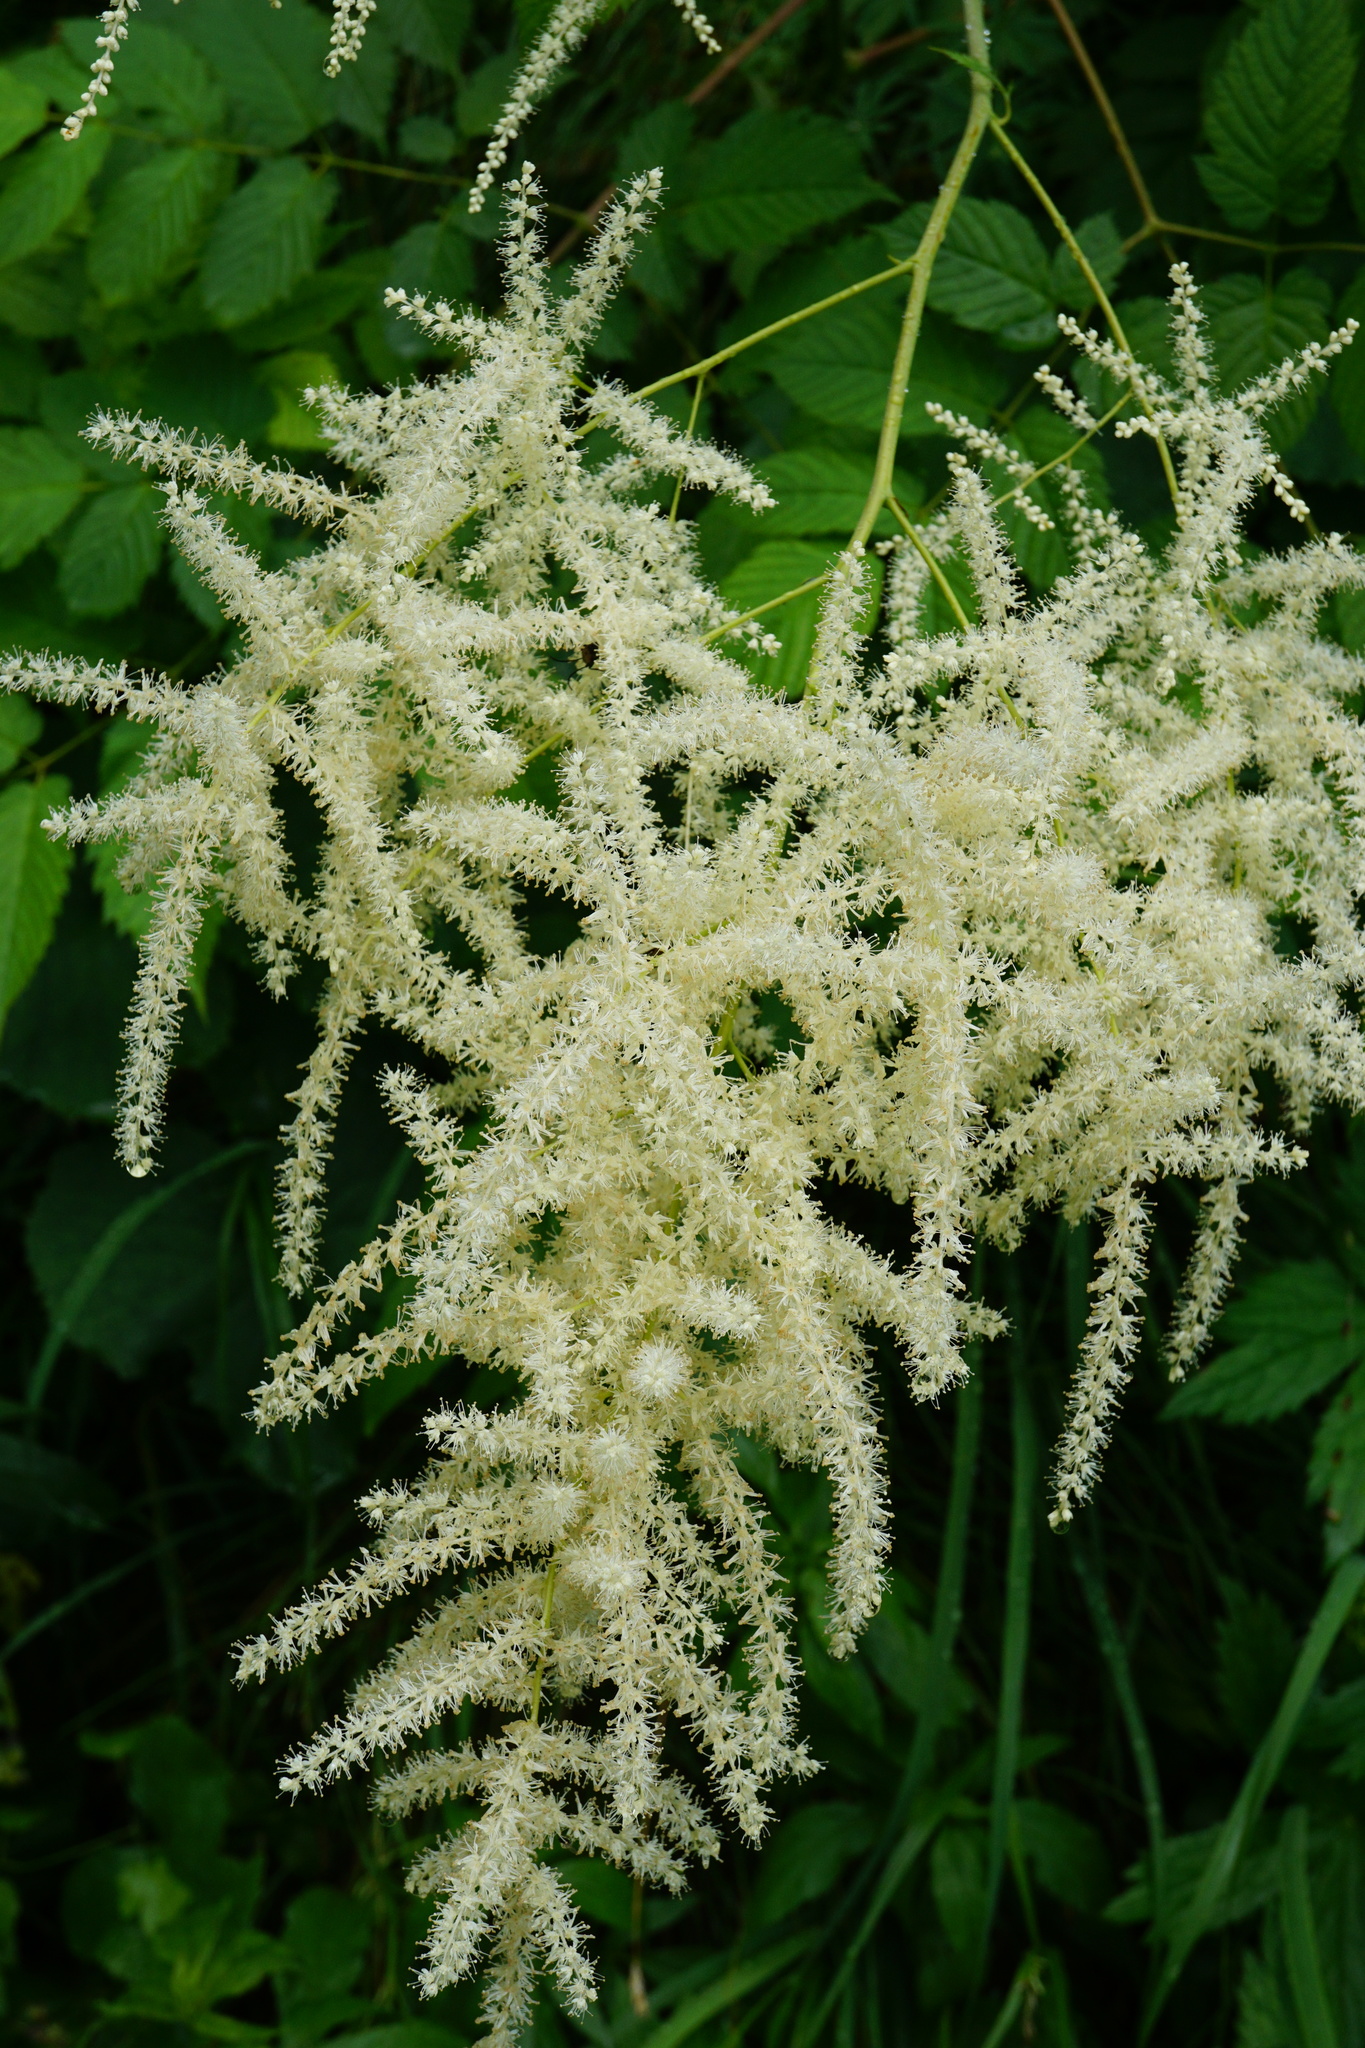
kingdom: Plantae
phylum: Tracheophyta
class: Magnoliopsida
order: Rosales
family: Rosaceae
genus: Aruncus
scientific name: Aruncus dioicus
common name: Buck's-beard
